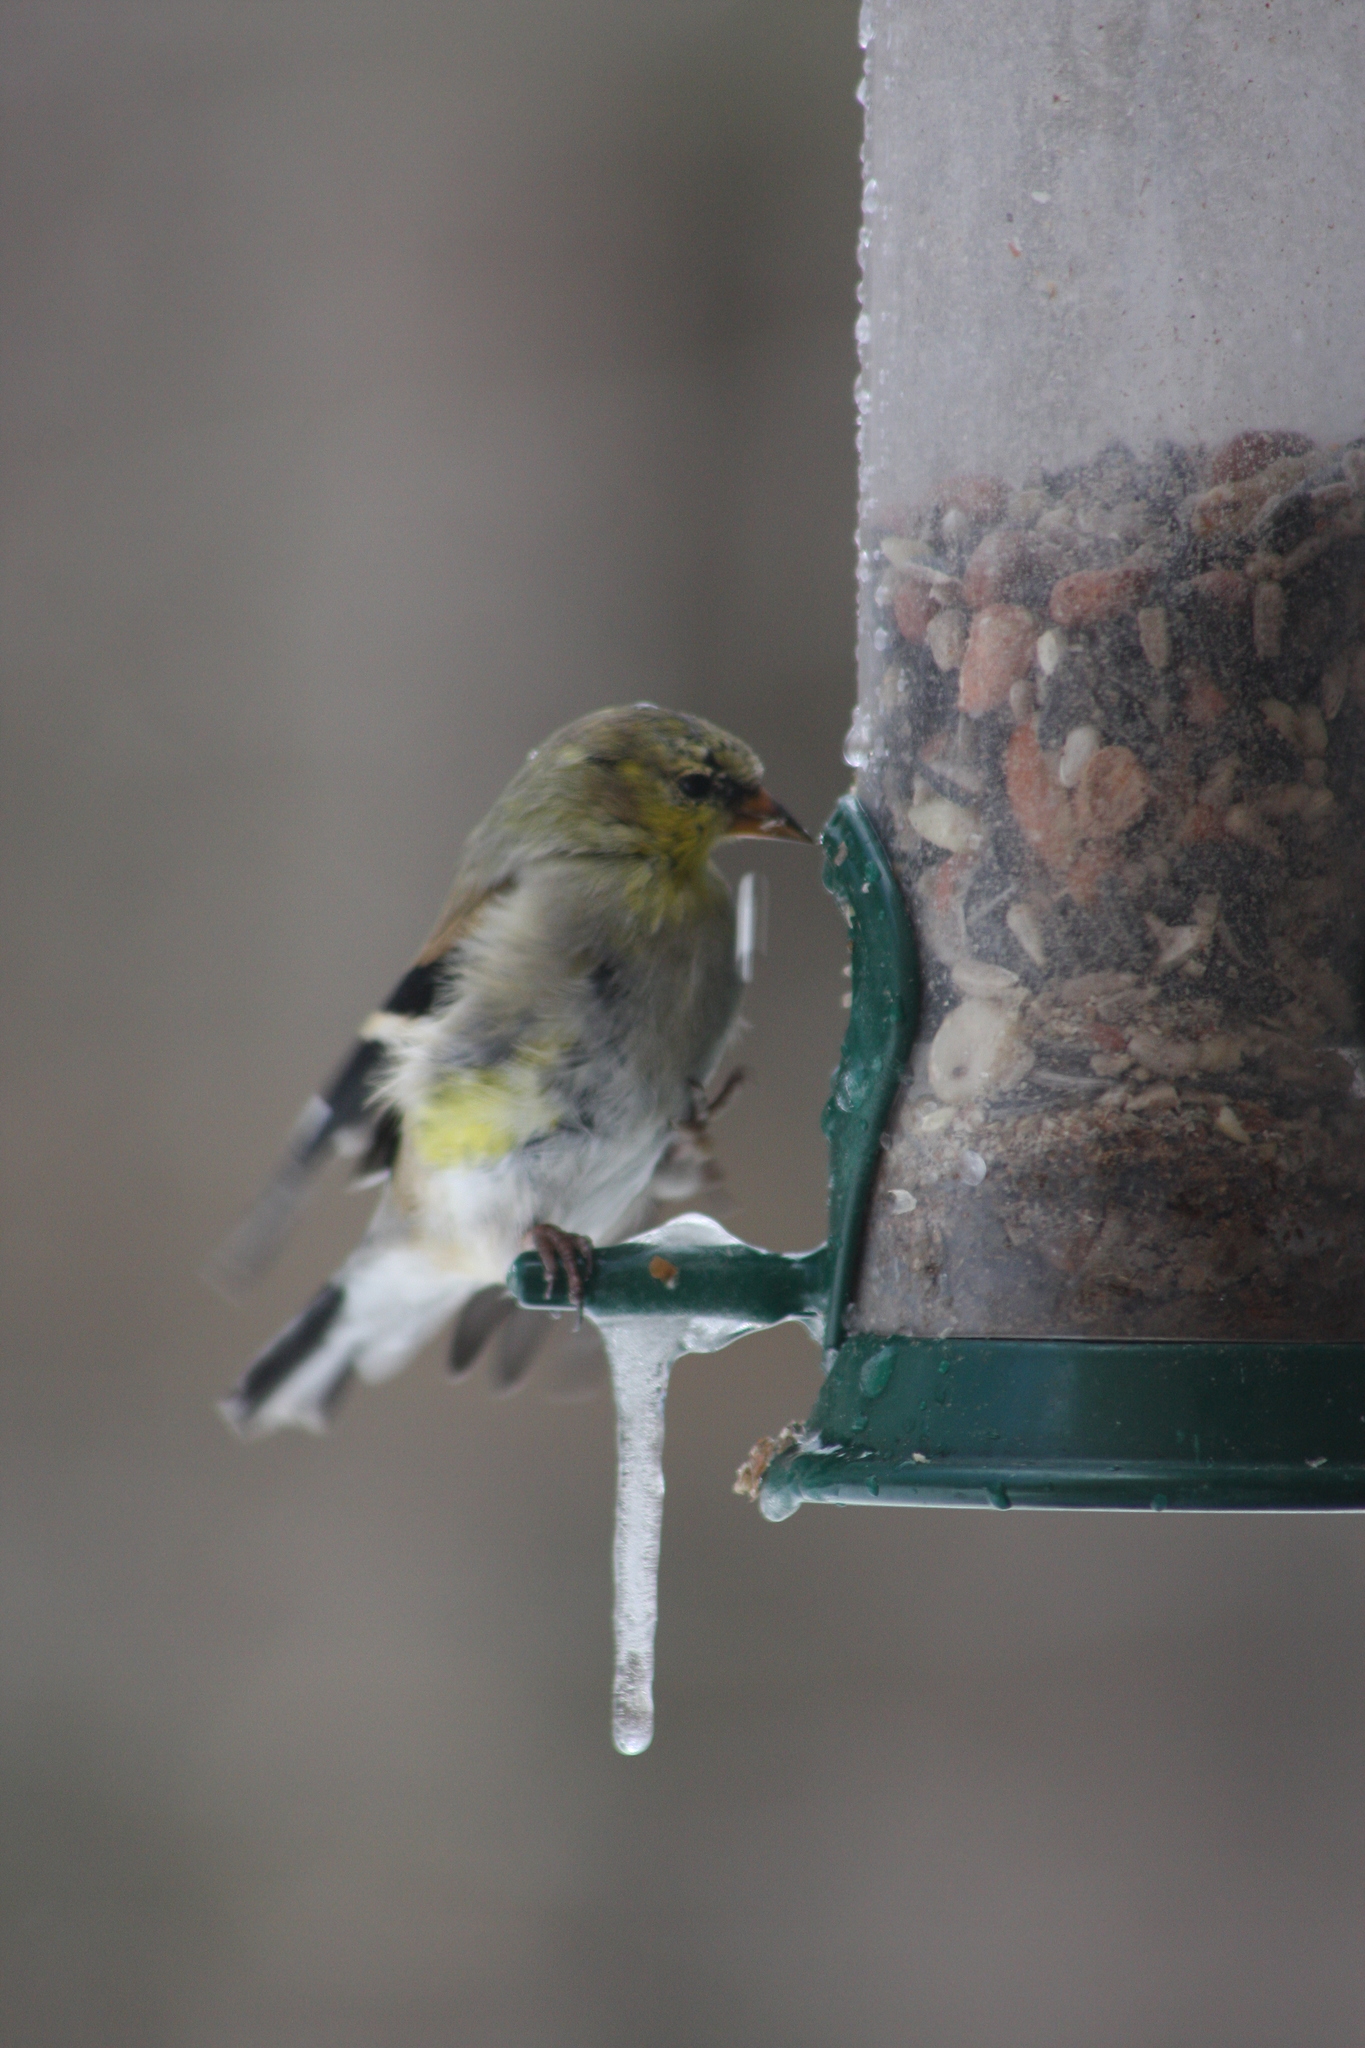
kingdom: Animalia
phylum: Chordata
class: Aves
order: Passeriformes
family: Fringillidae
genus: Spinus
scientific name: Spinus tristis
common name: American goldfinch
